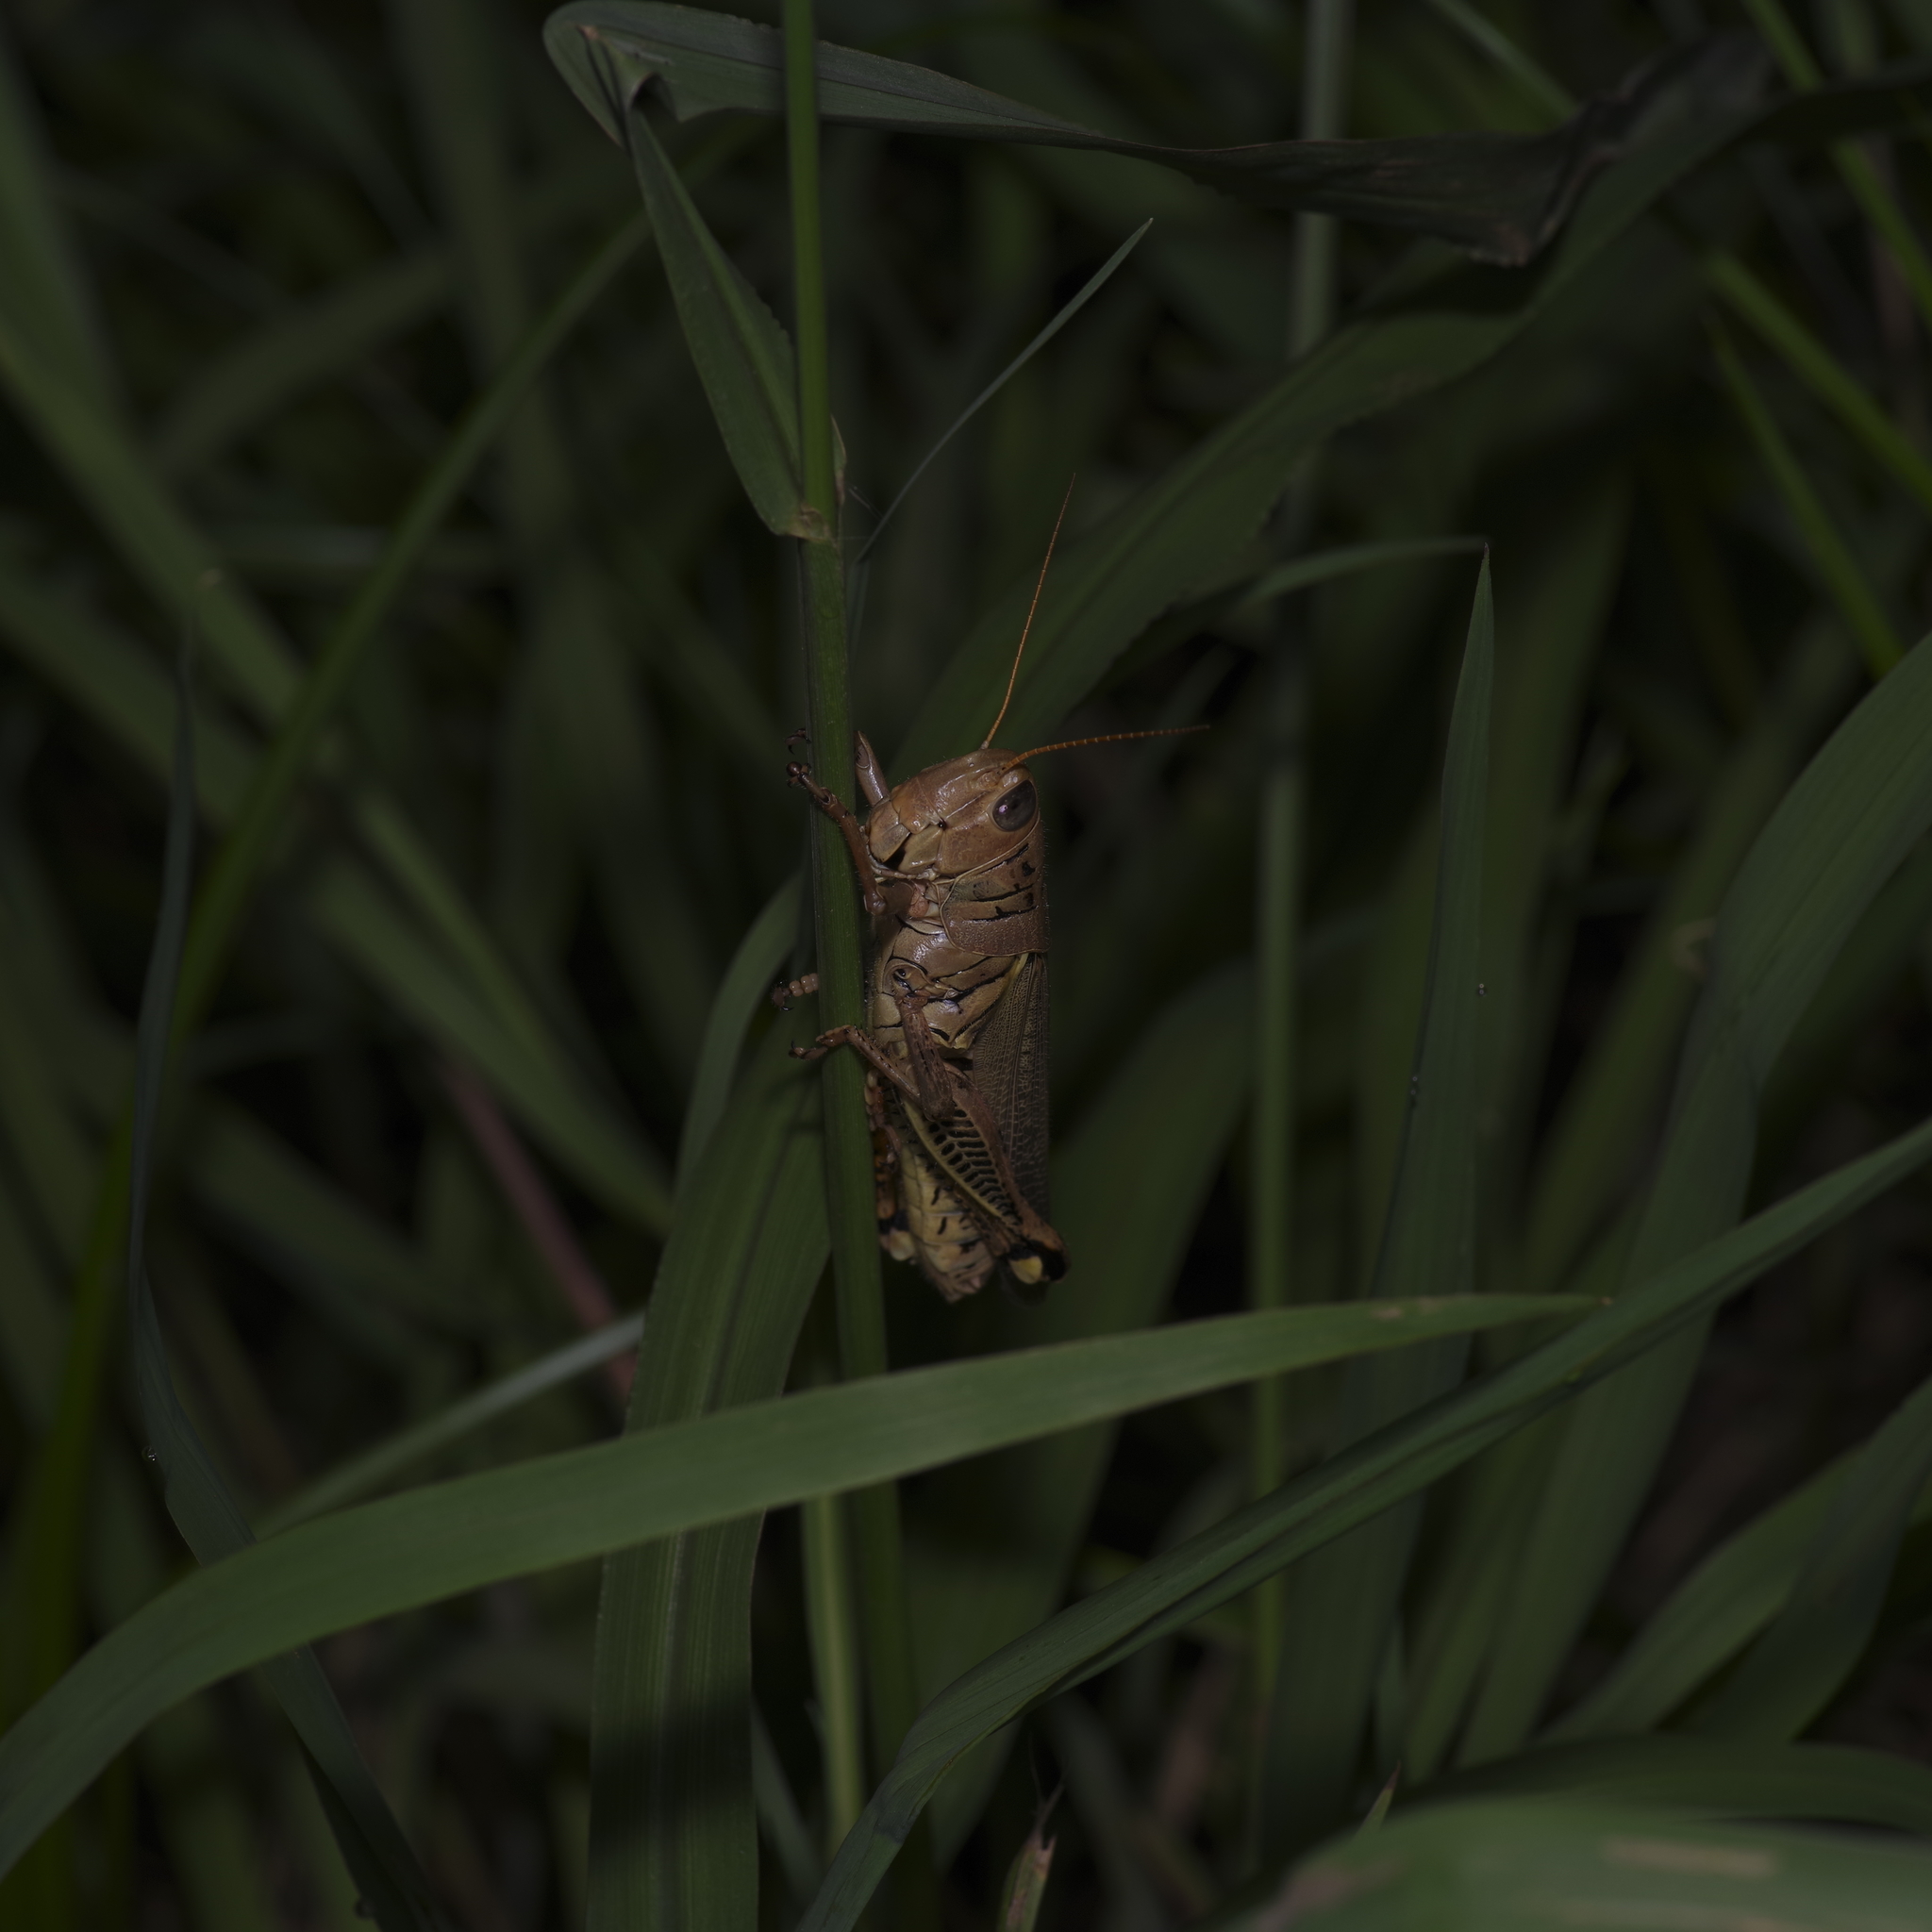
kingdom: Animalia
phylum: Arthropoda
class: Insecta
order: Orthoptera
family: Acrididae
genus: Melanoplus
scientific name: Melanoplus differentialis
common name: Differential grasshopper
